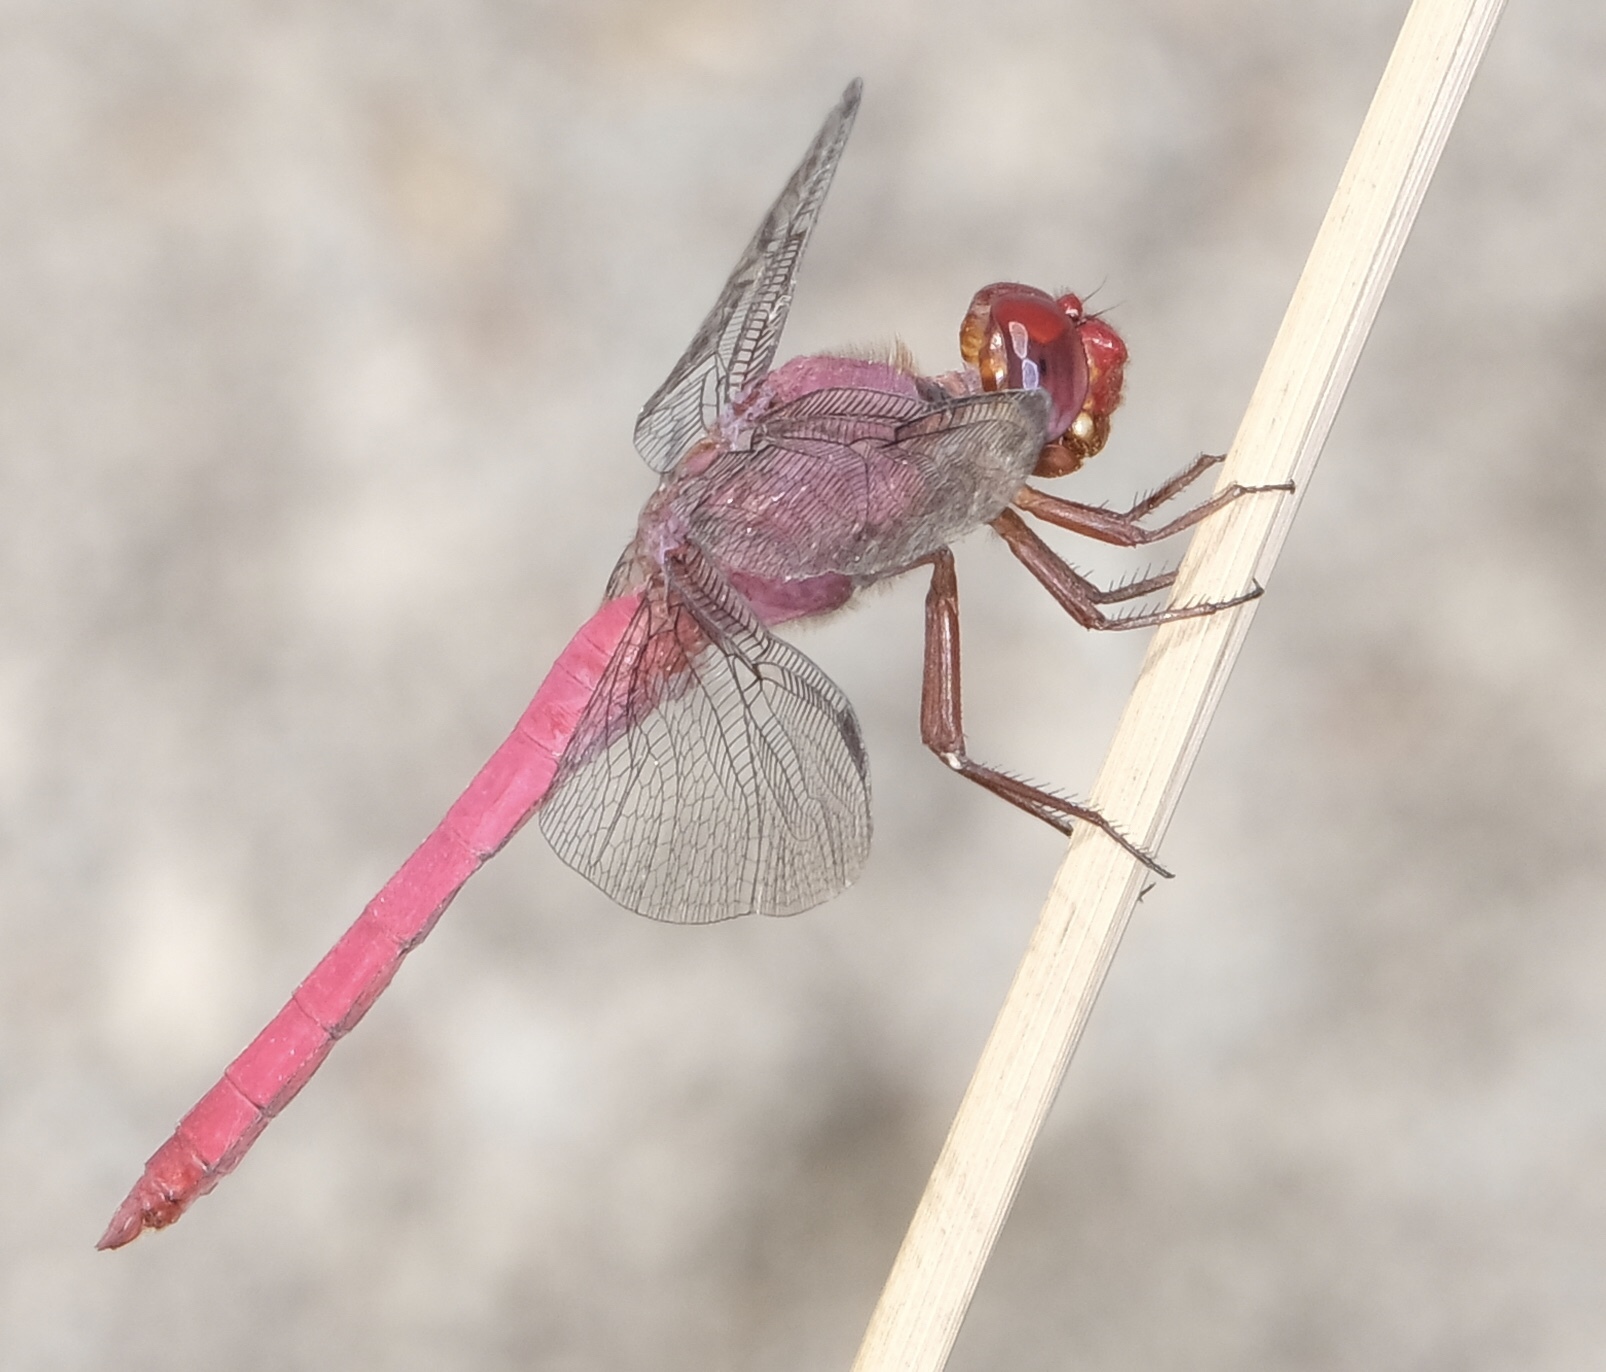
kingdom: Animalia
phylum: Arthropoda
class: Insecta
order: Odonata
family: Libellulidae
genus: Orthemis
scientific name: Orthemis discolor
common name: Carmine skimmer
